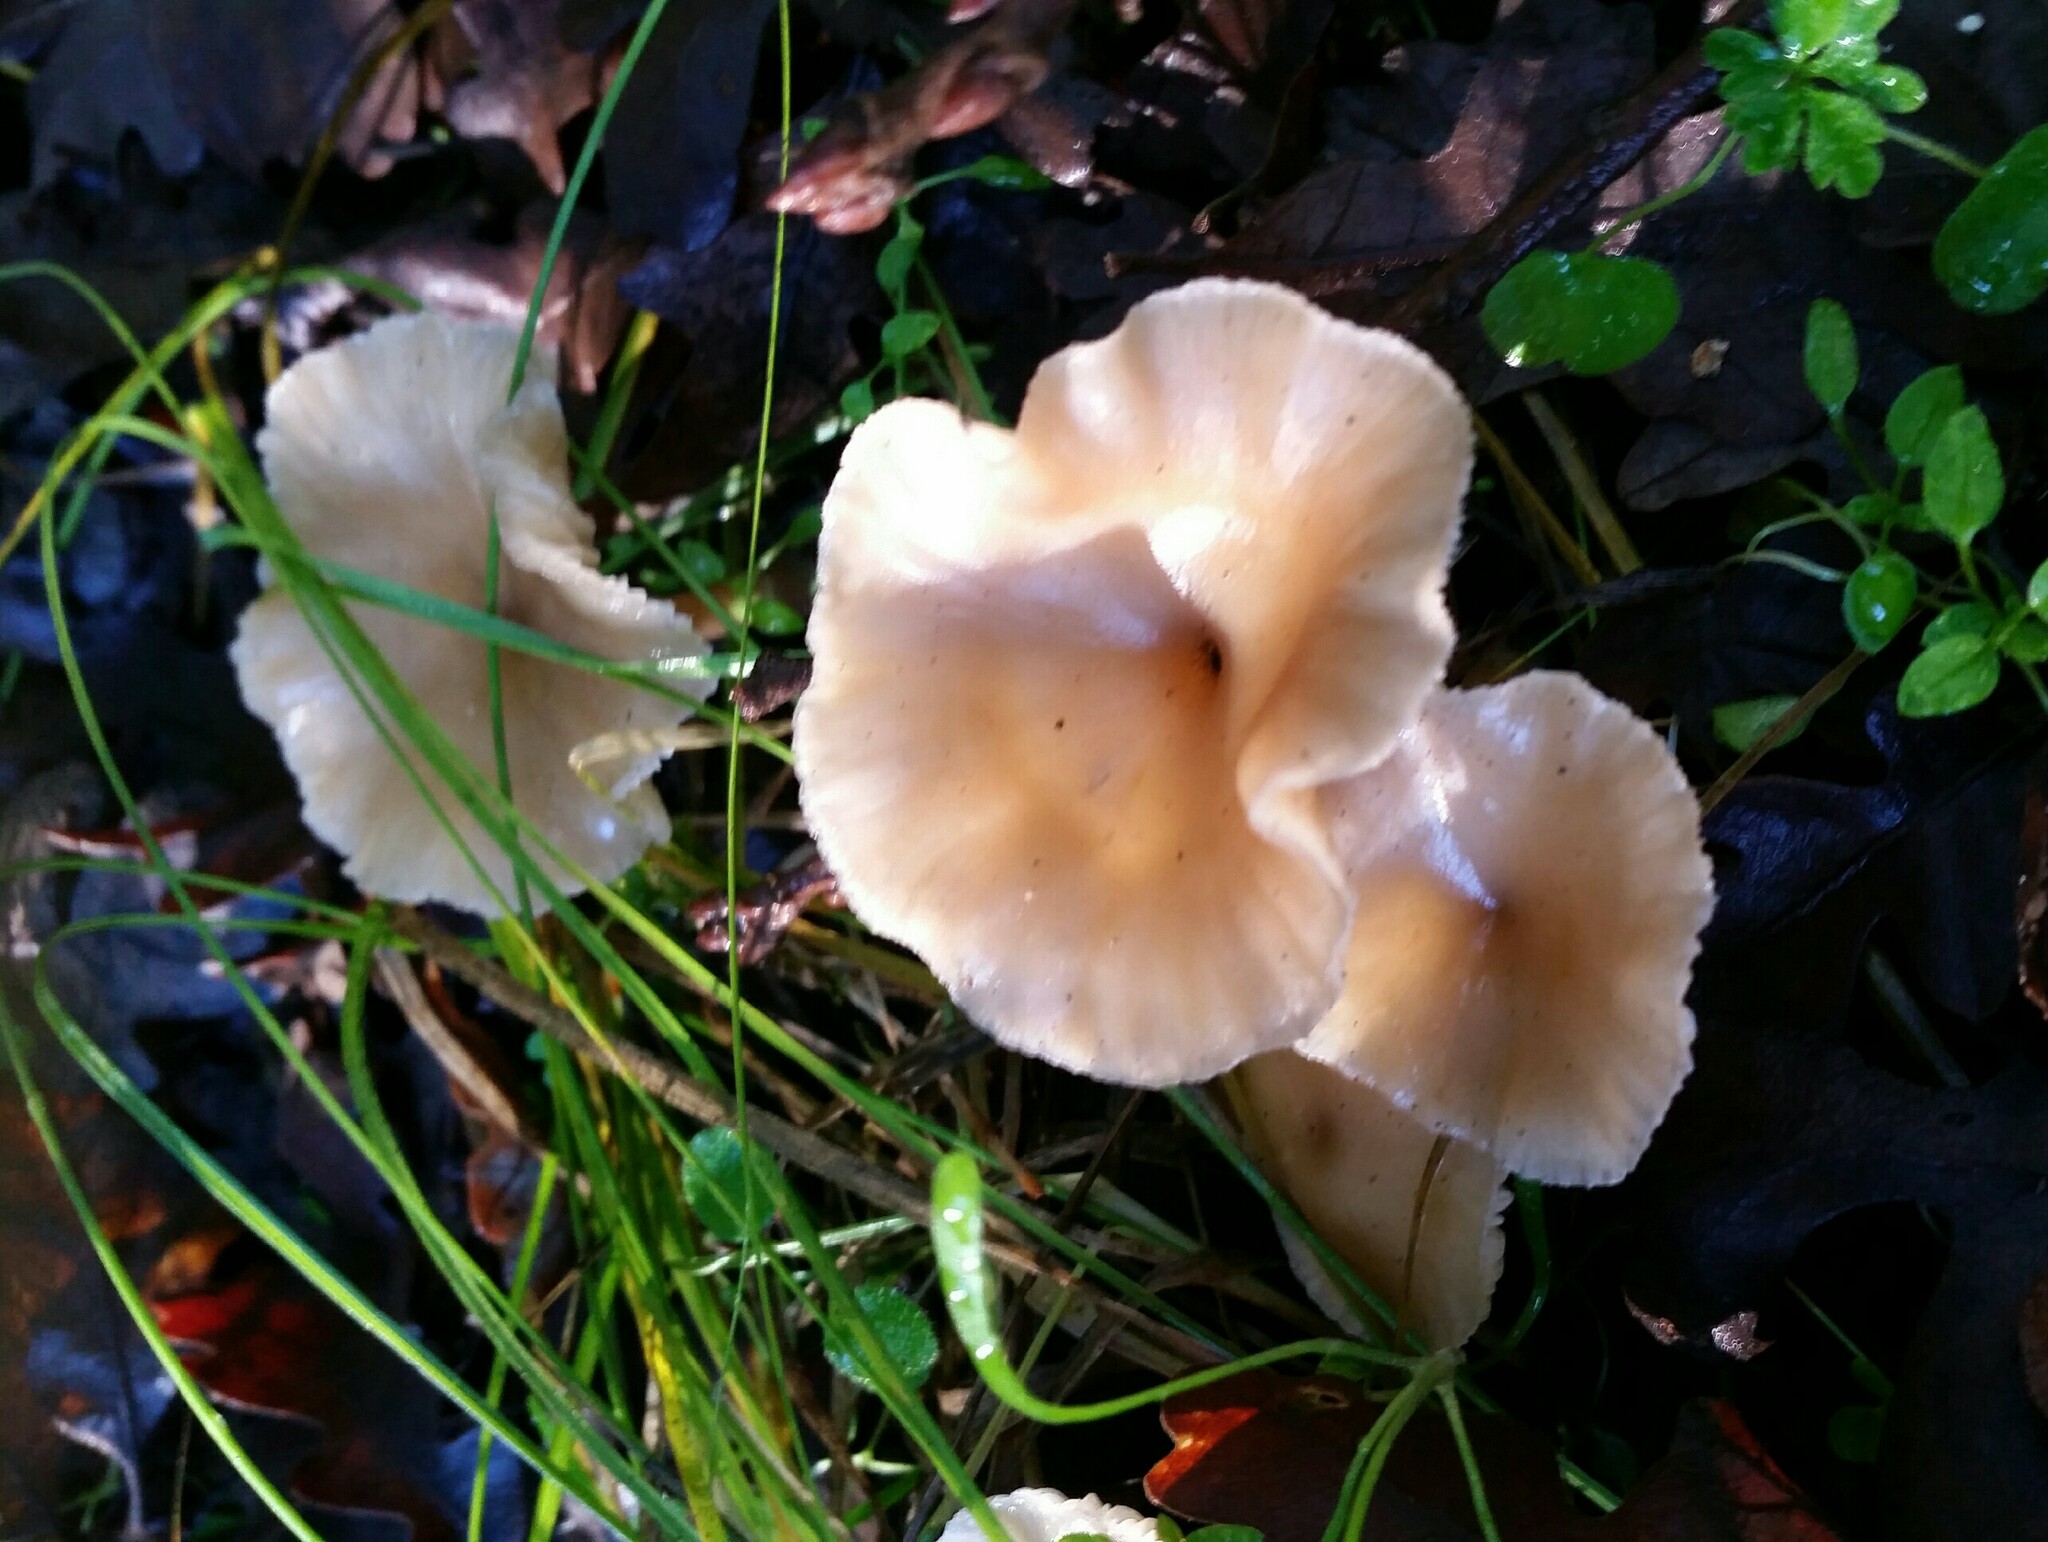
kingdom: Fungi
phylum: Basidiomycota
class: Agaricomycetes
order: Agaricales
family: Tricholomataceae
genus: Clitocybe
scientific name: Clitocybe fragrans
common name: Fragrant funnel
